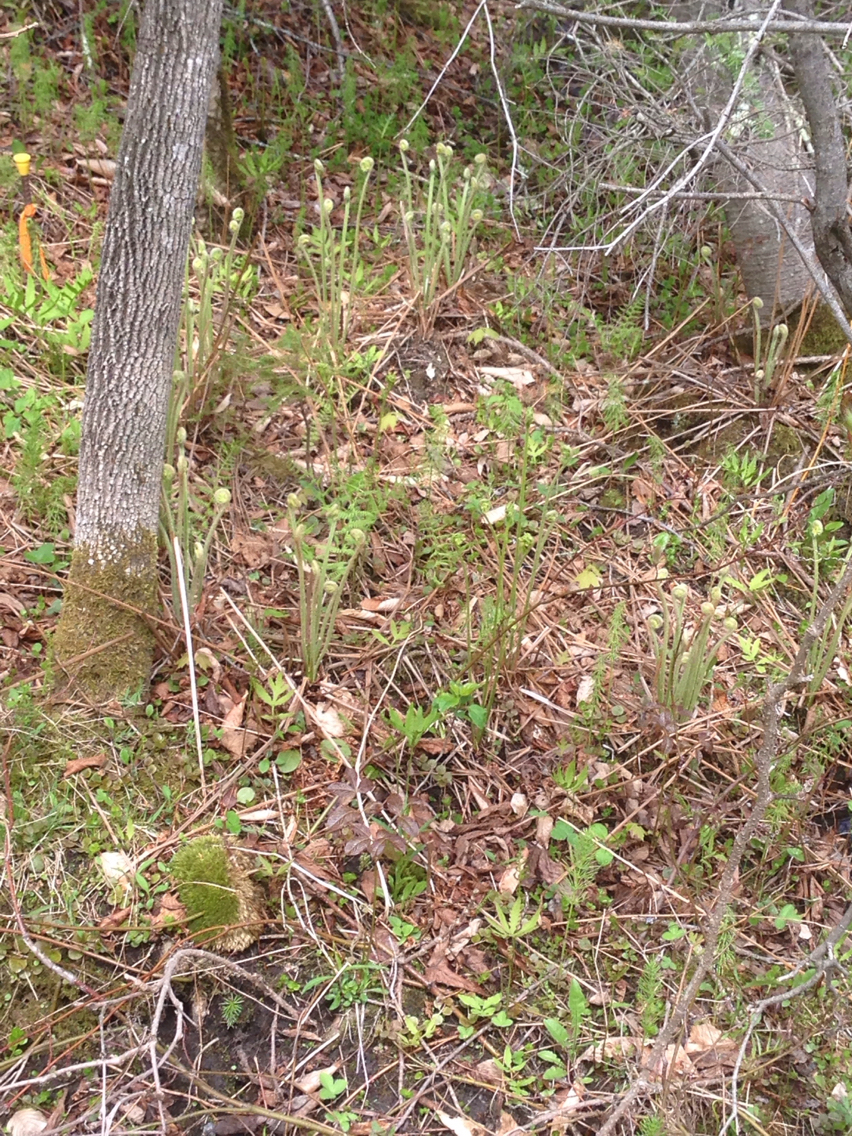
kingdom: Plantae
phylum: Tracheophyta
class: Polypodiopsida
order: Osmundales
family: Osmundaceae
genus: Osmundastrum
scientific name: Osmundastrum cinnamomeum
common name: Cinnamon fern
